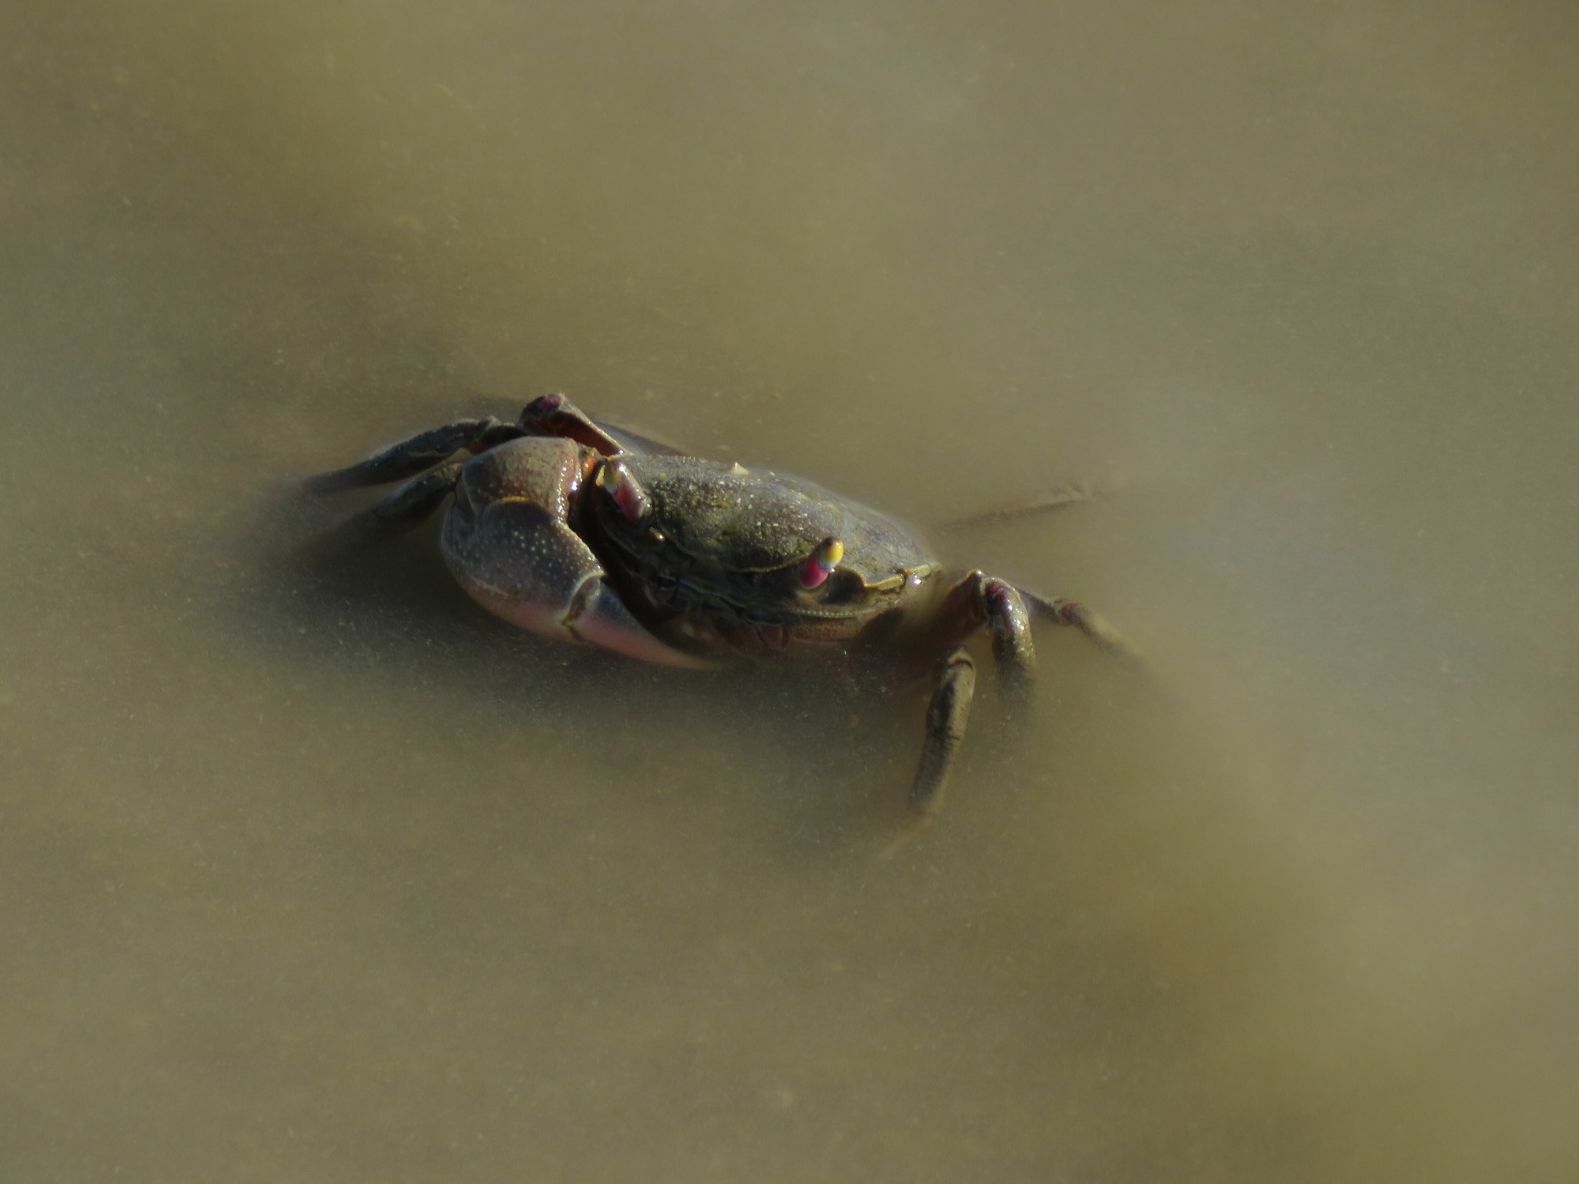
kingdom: Animalia
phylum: Arthropoda
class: Malacostraca
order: Decapoda
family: Varunidae
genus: Neohelice
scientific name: Neohelice granulata
